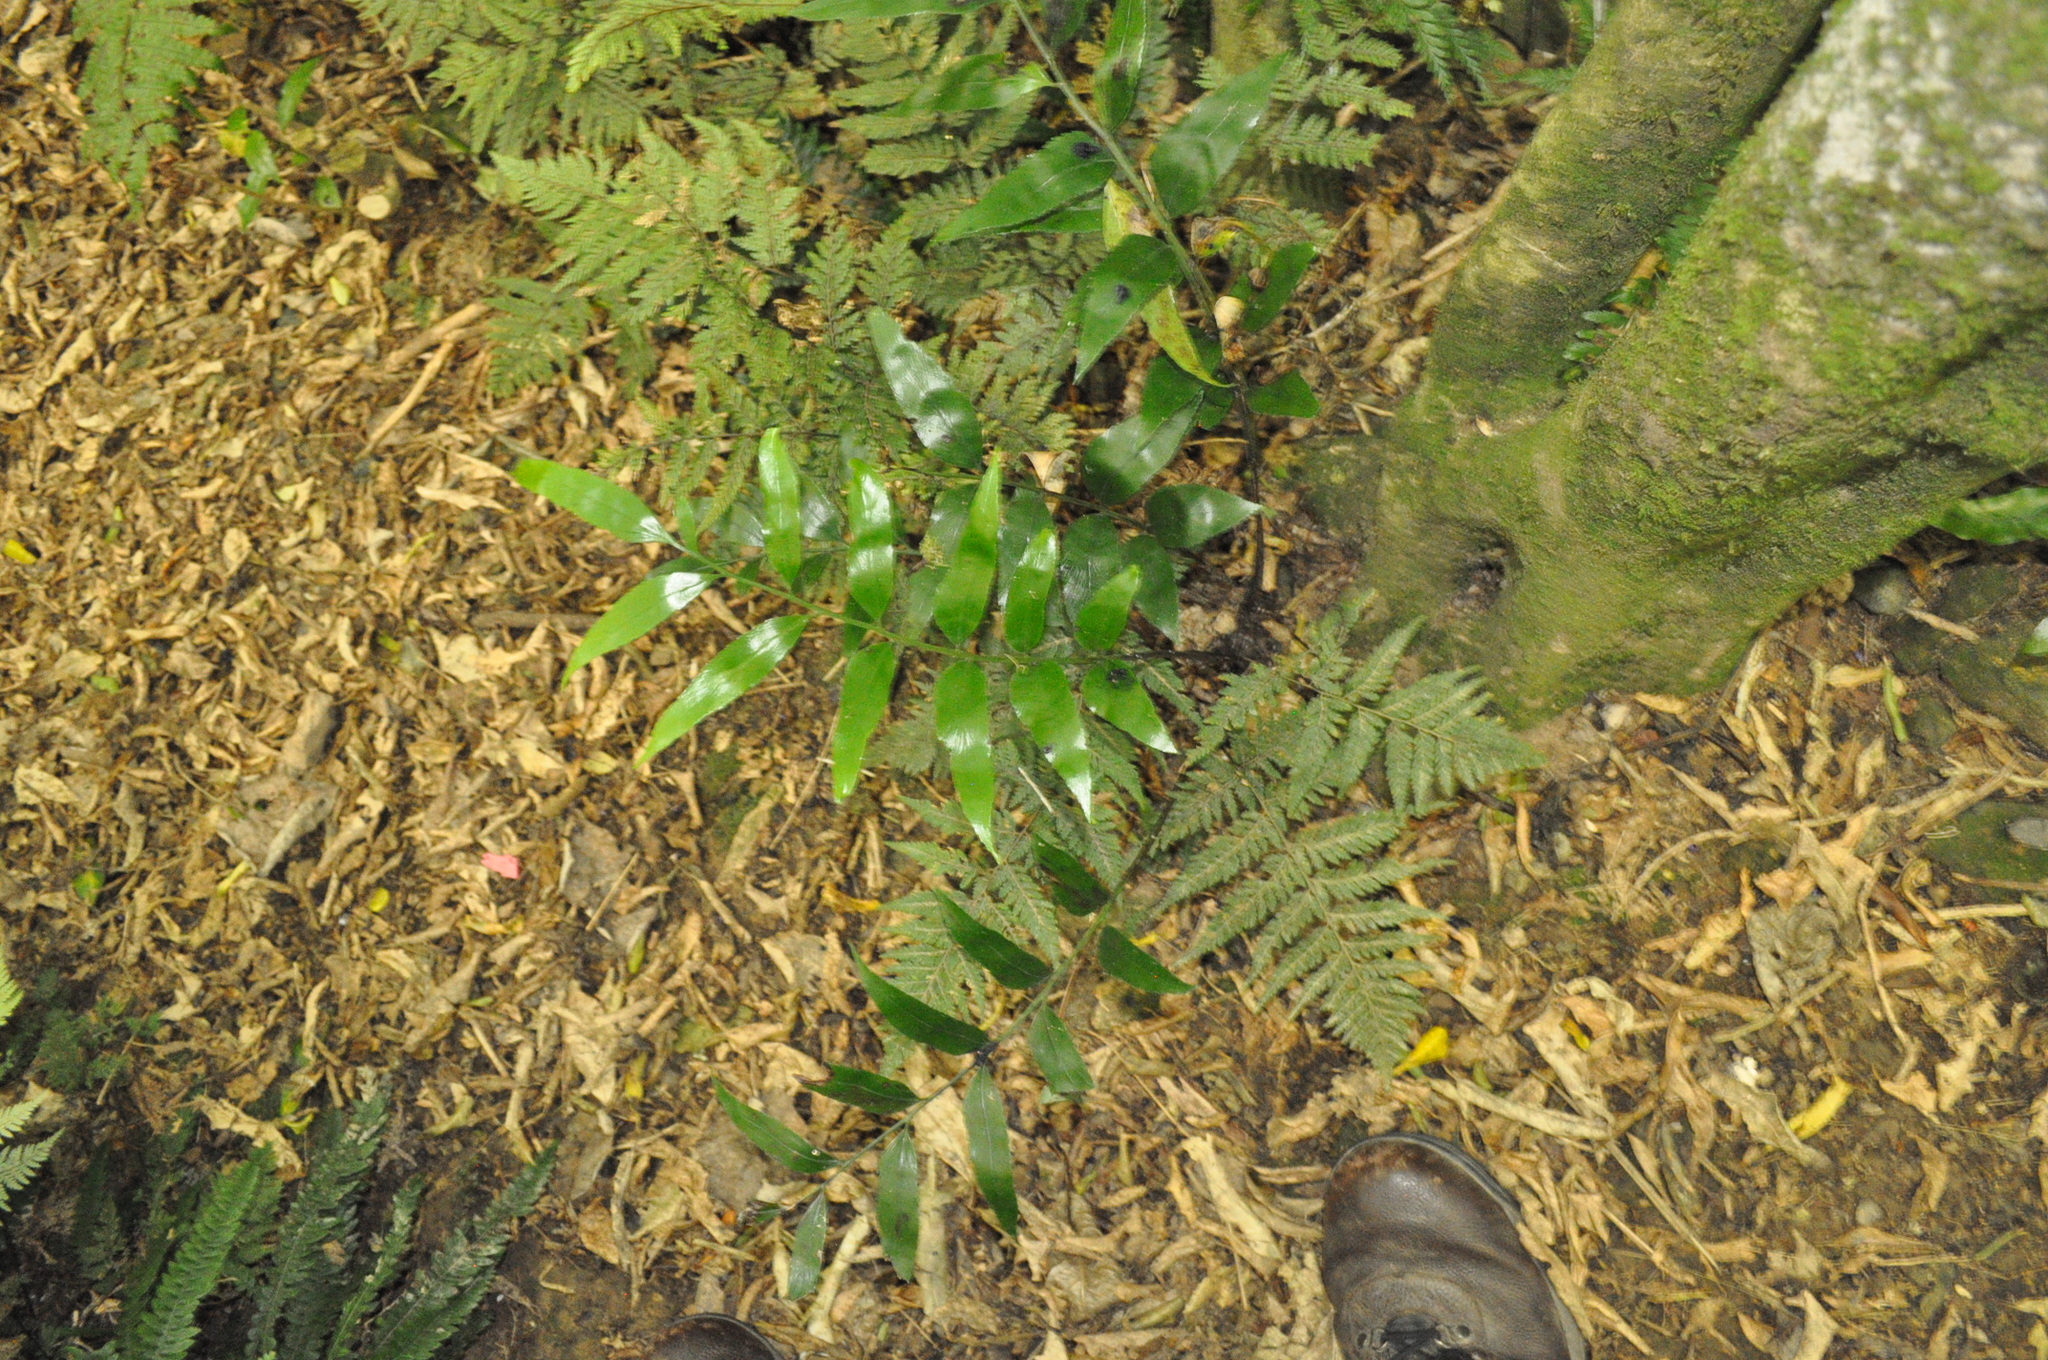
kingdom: Plantae
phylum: Tracheophyta
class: Polypodiopsida
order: Polypodiales
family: Aspleniaceae
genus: Asplenium
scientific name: Asplenium oblongifolium
